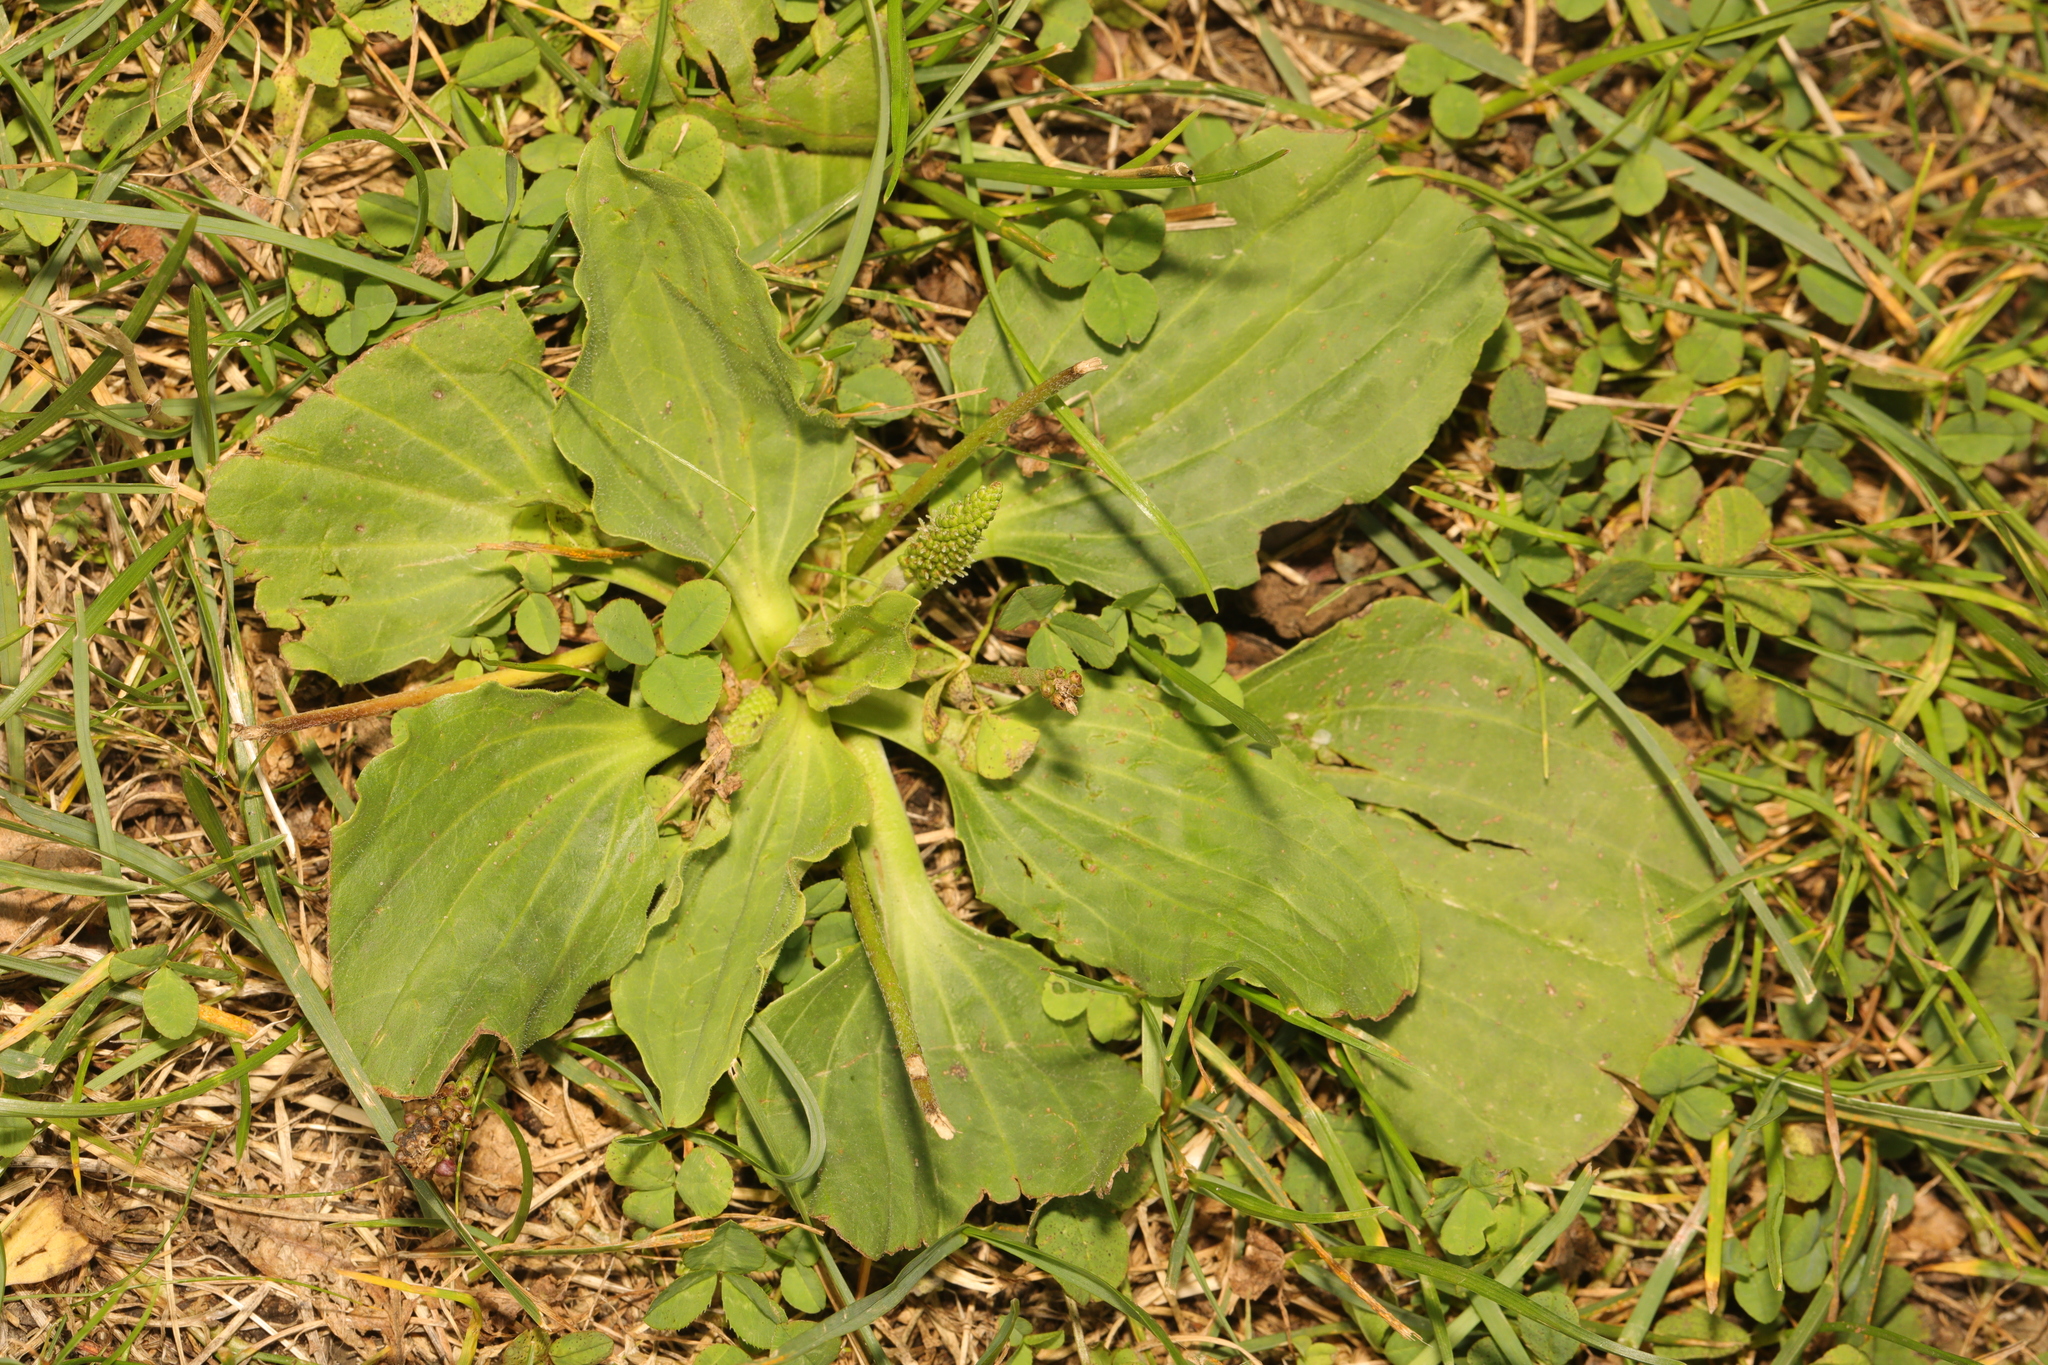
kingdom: Plantae
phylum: Tracheophyta
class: Magnoliopsida
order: Lamiales
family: Plantaginaceae
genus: Plantago
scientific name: Plantago major
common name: Common plantain
